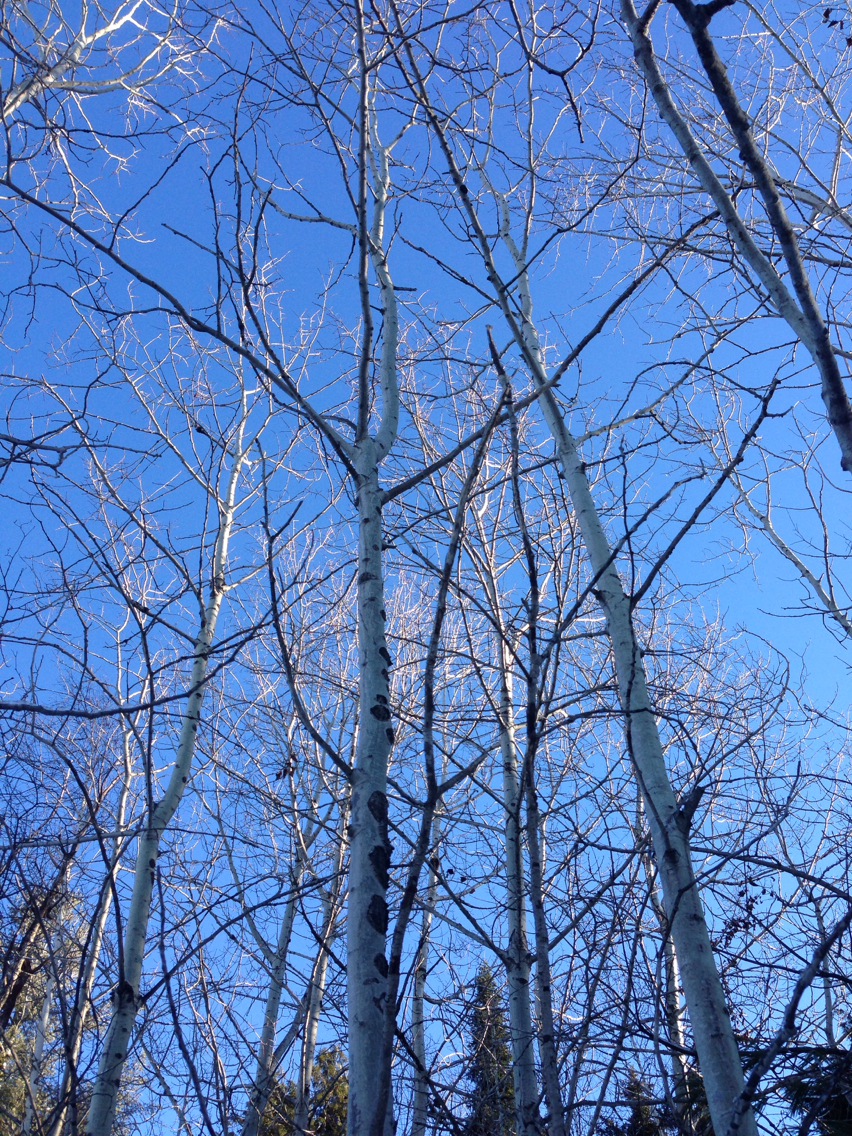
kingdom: Plantae
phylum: Tracheophyta
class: Magnoliopsida
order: Malpighiales
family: Salicaceae
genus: Populus
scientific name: Populus tremuloides
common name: Quaking aspen
